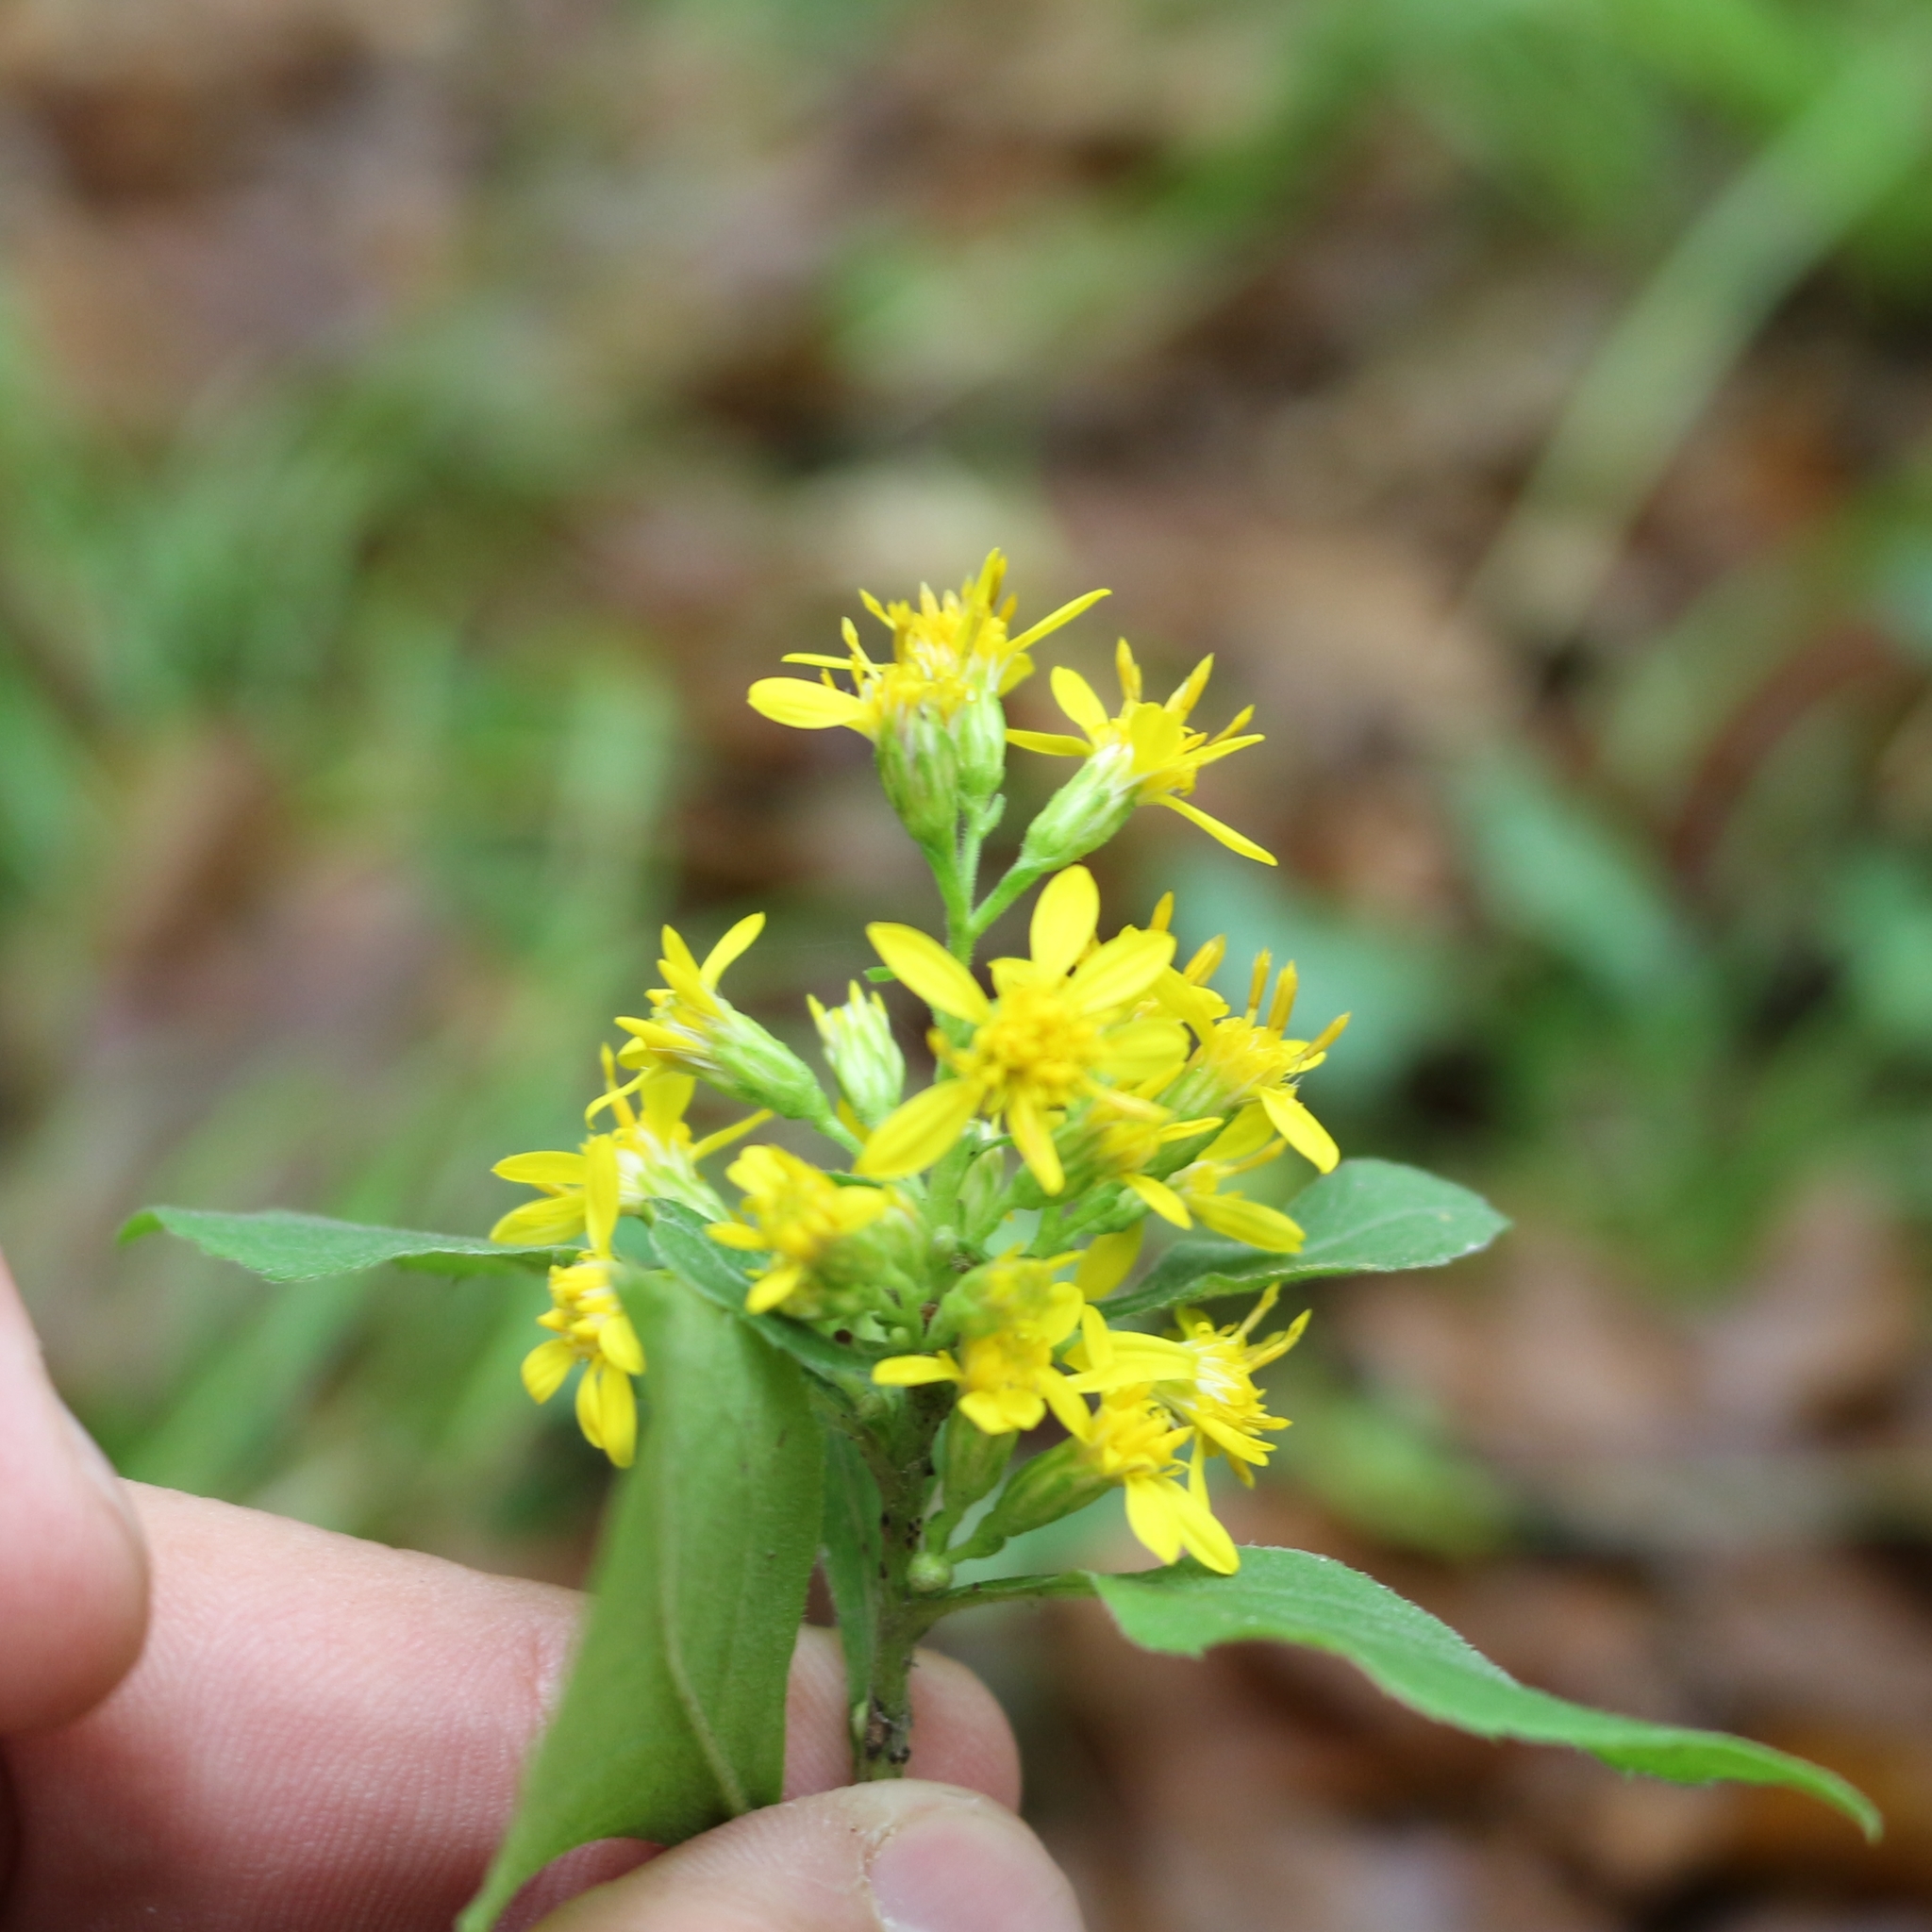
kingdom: Plantae
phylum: Tracheophyta
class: Magnoliopsida
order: Asterales
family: Asteraceae
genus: Solidago
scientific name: Solidago virgaurea
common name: Goldenrod
